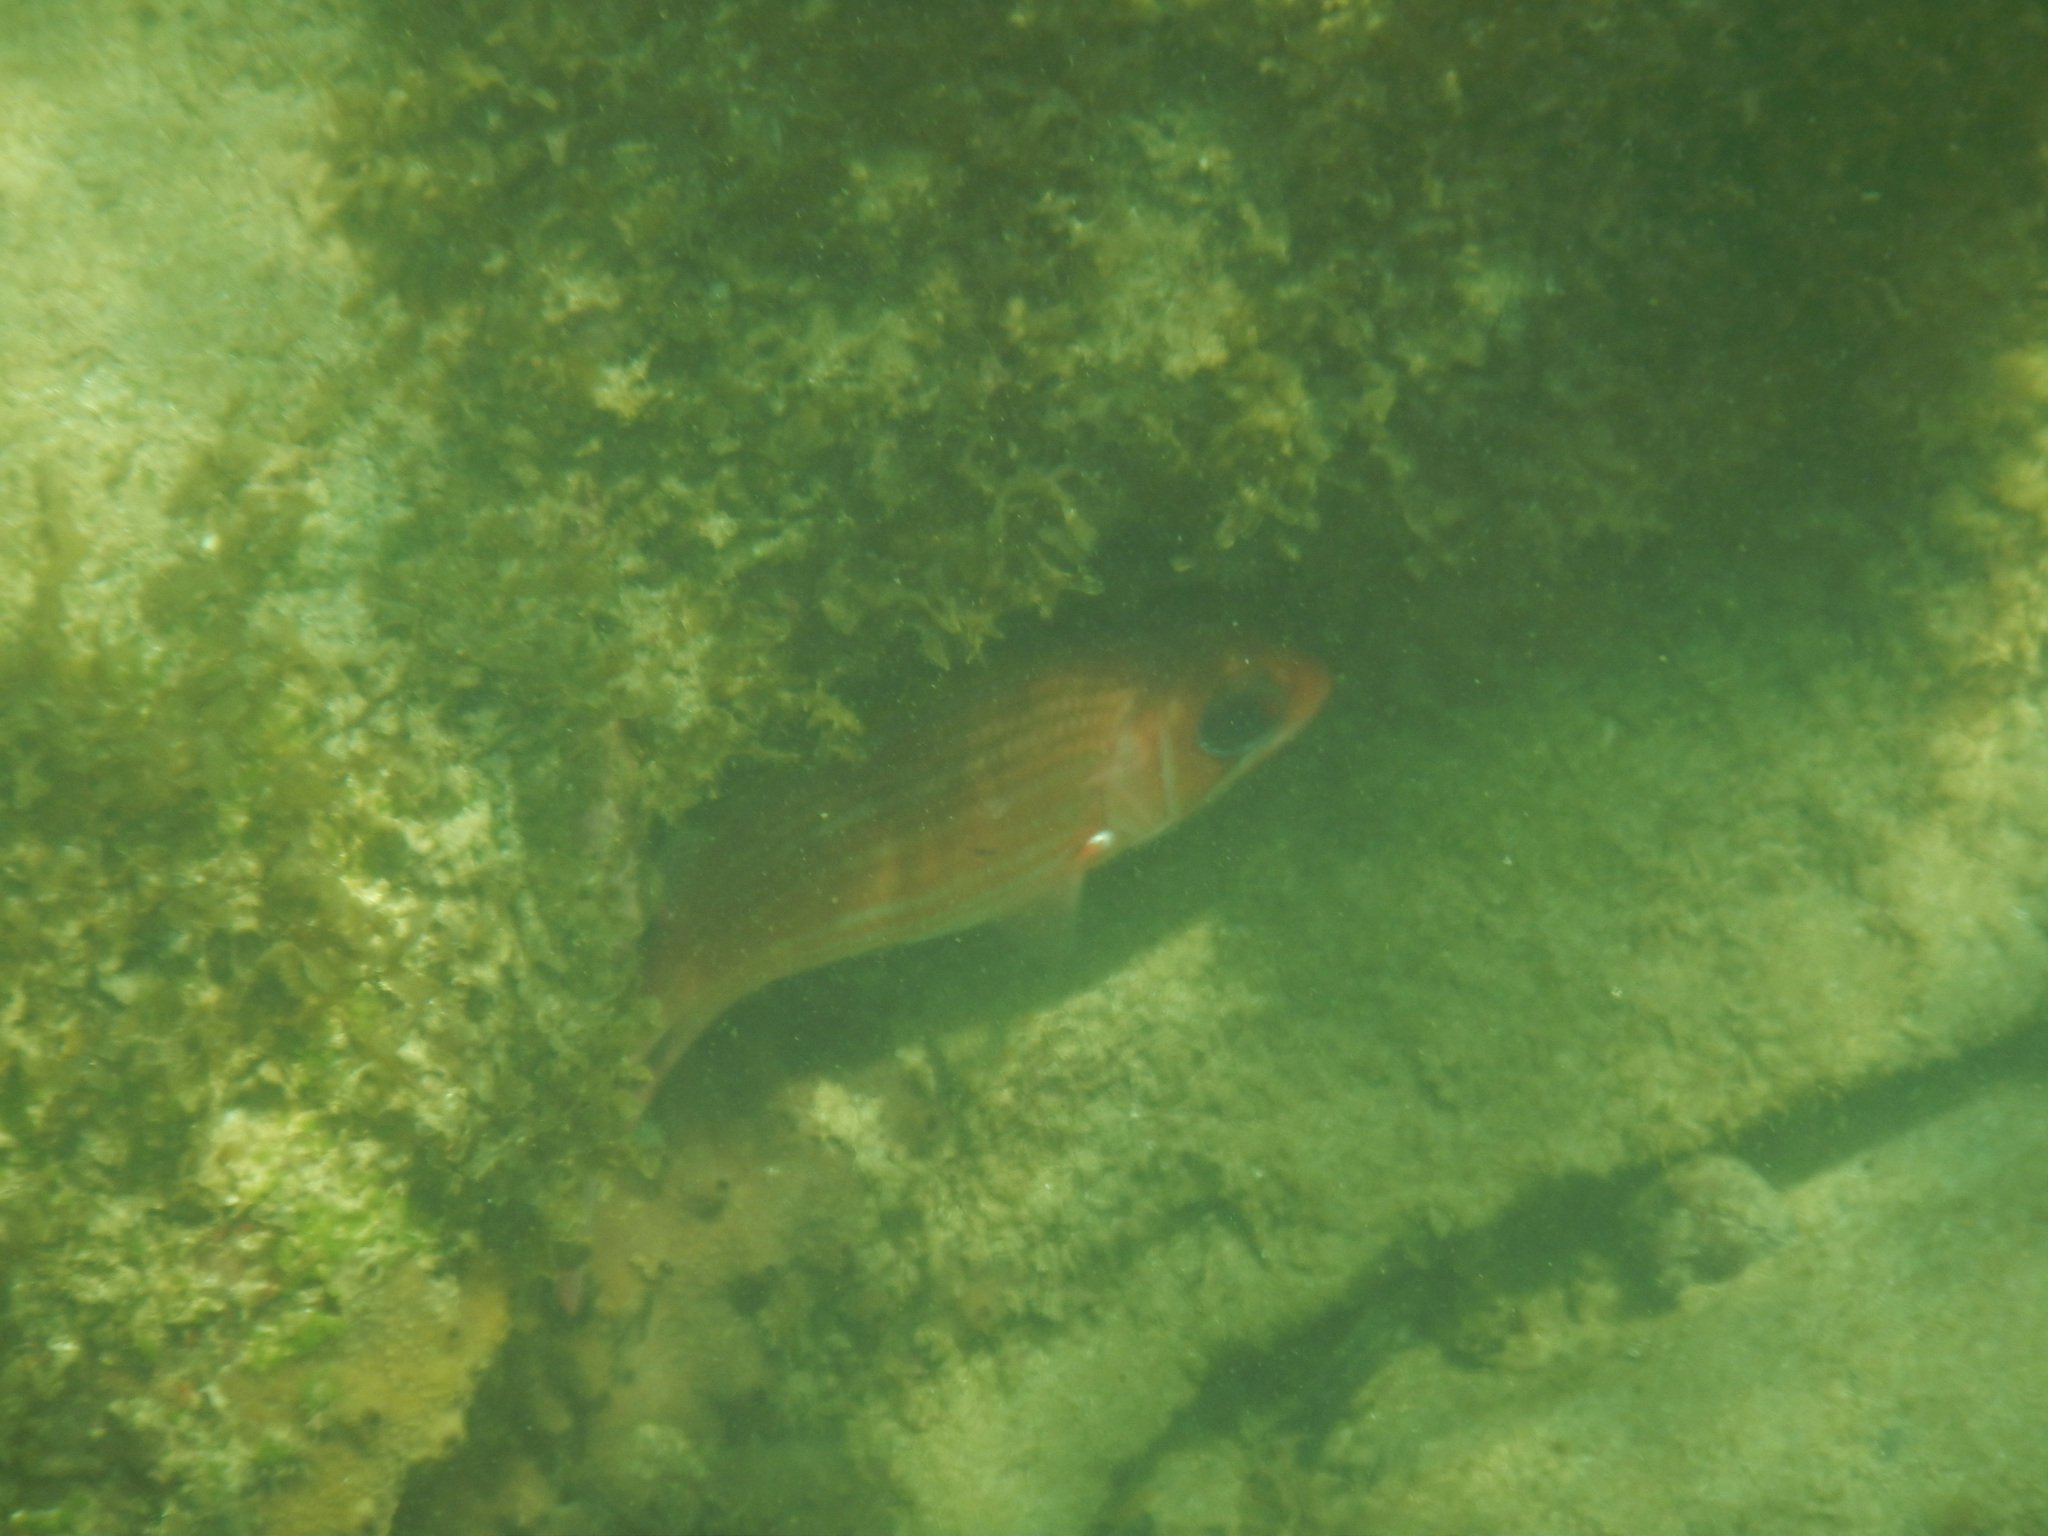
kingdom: Animalia
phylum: Chordata
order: Beryciformes
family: Holocentridae
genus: Holocentrus
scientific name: Holocentrus adscensionis
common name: Squirrelfish
